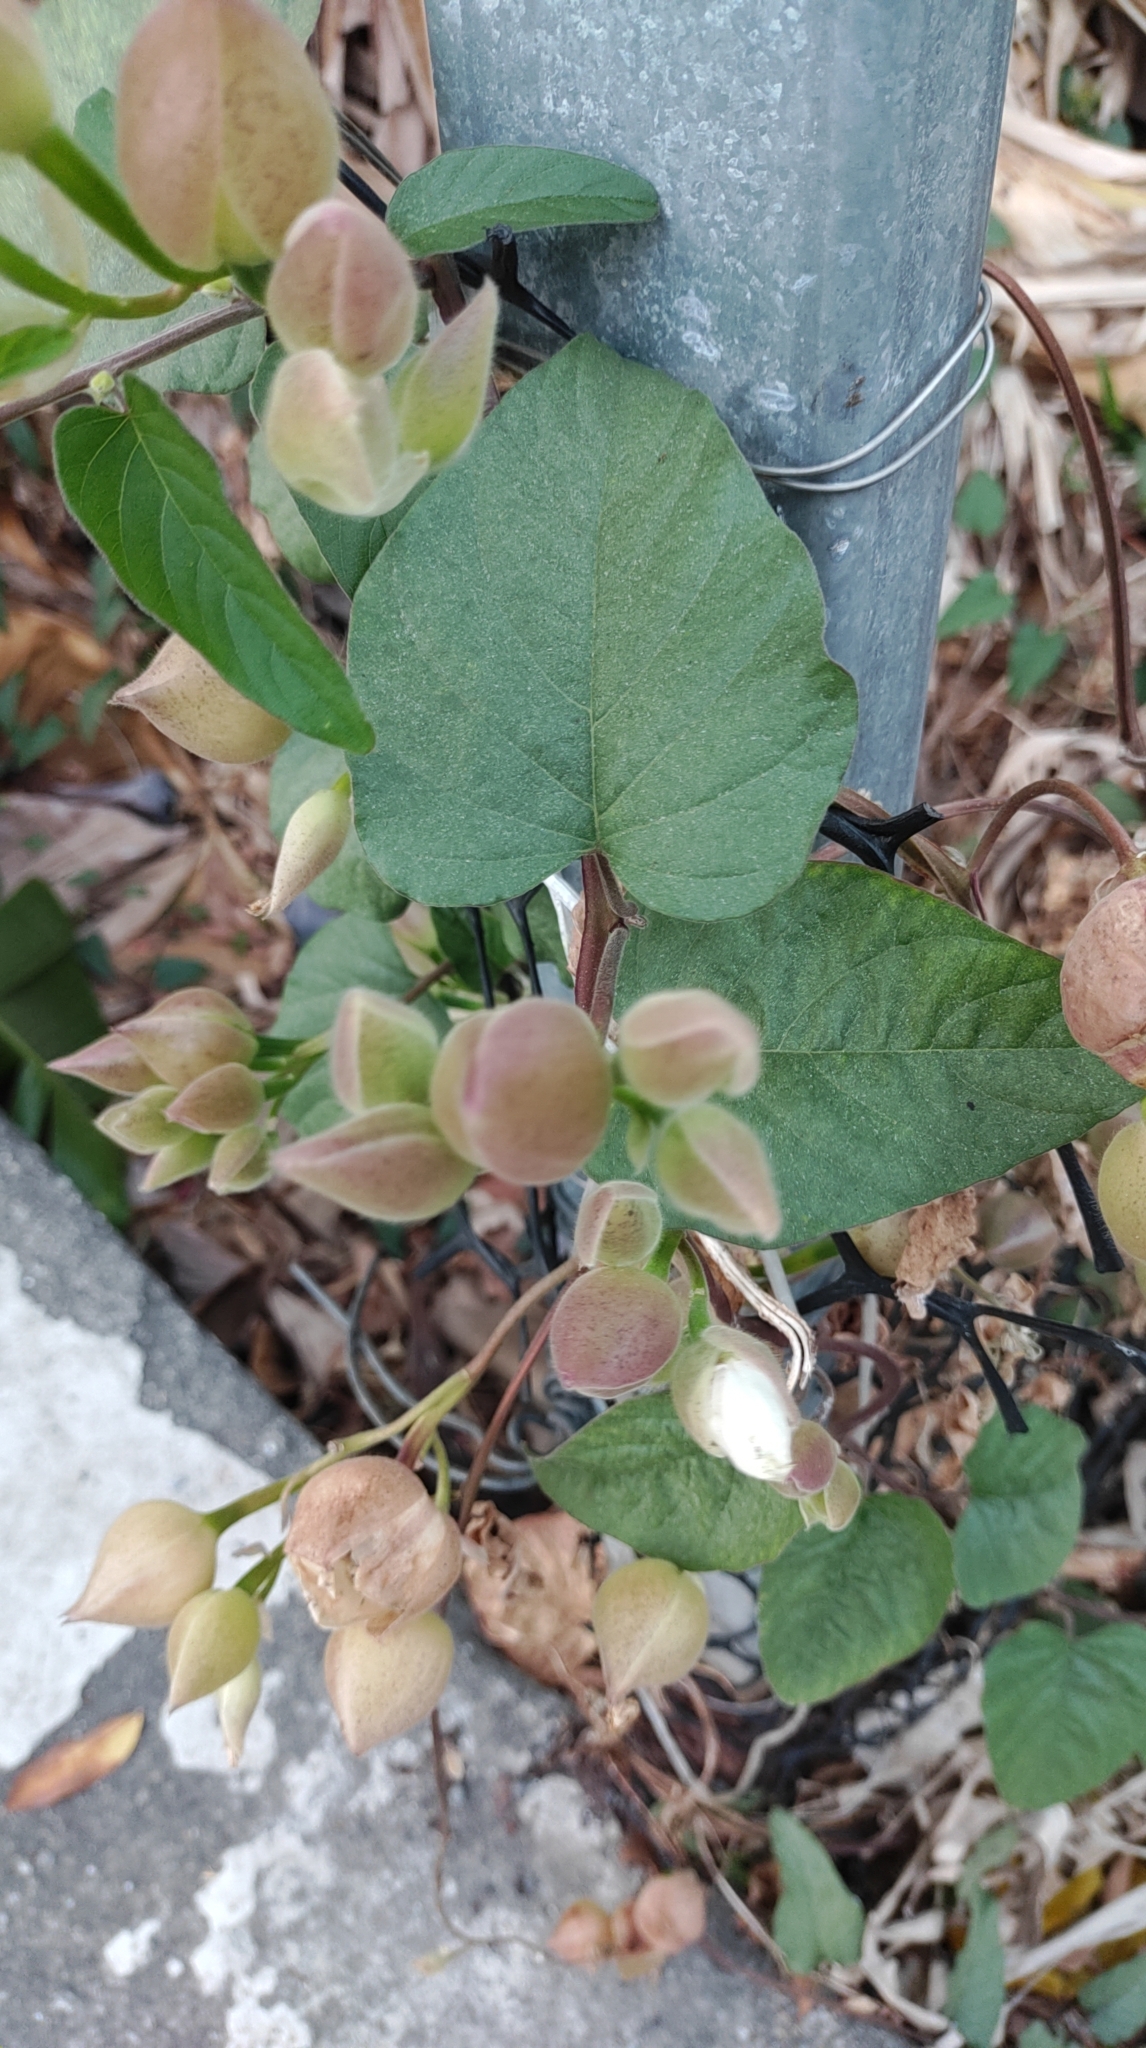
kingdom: Plantae
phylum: Tracheophyta
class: Magnoliopsida
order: Solanales
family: Convolvulaceae
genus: Operculina
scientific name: Operculina turpethum
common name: Transparent wood-rose
